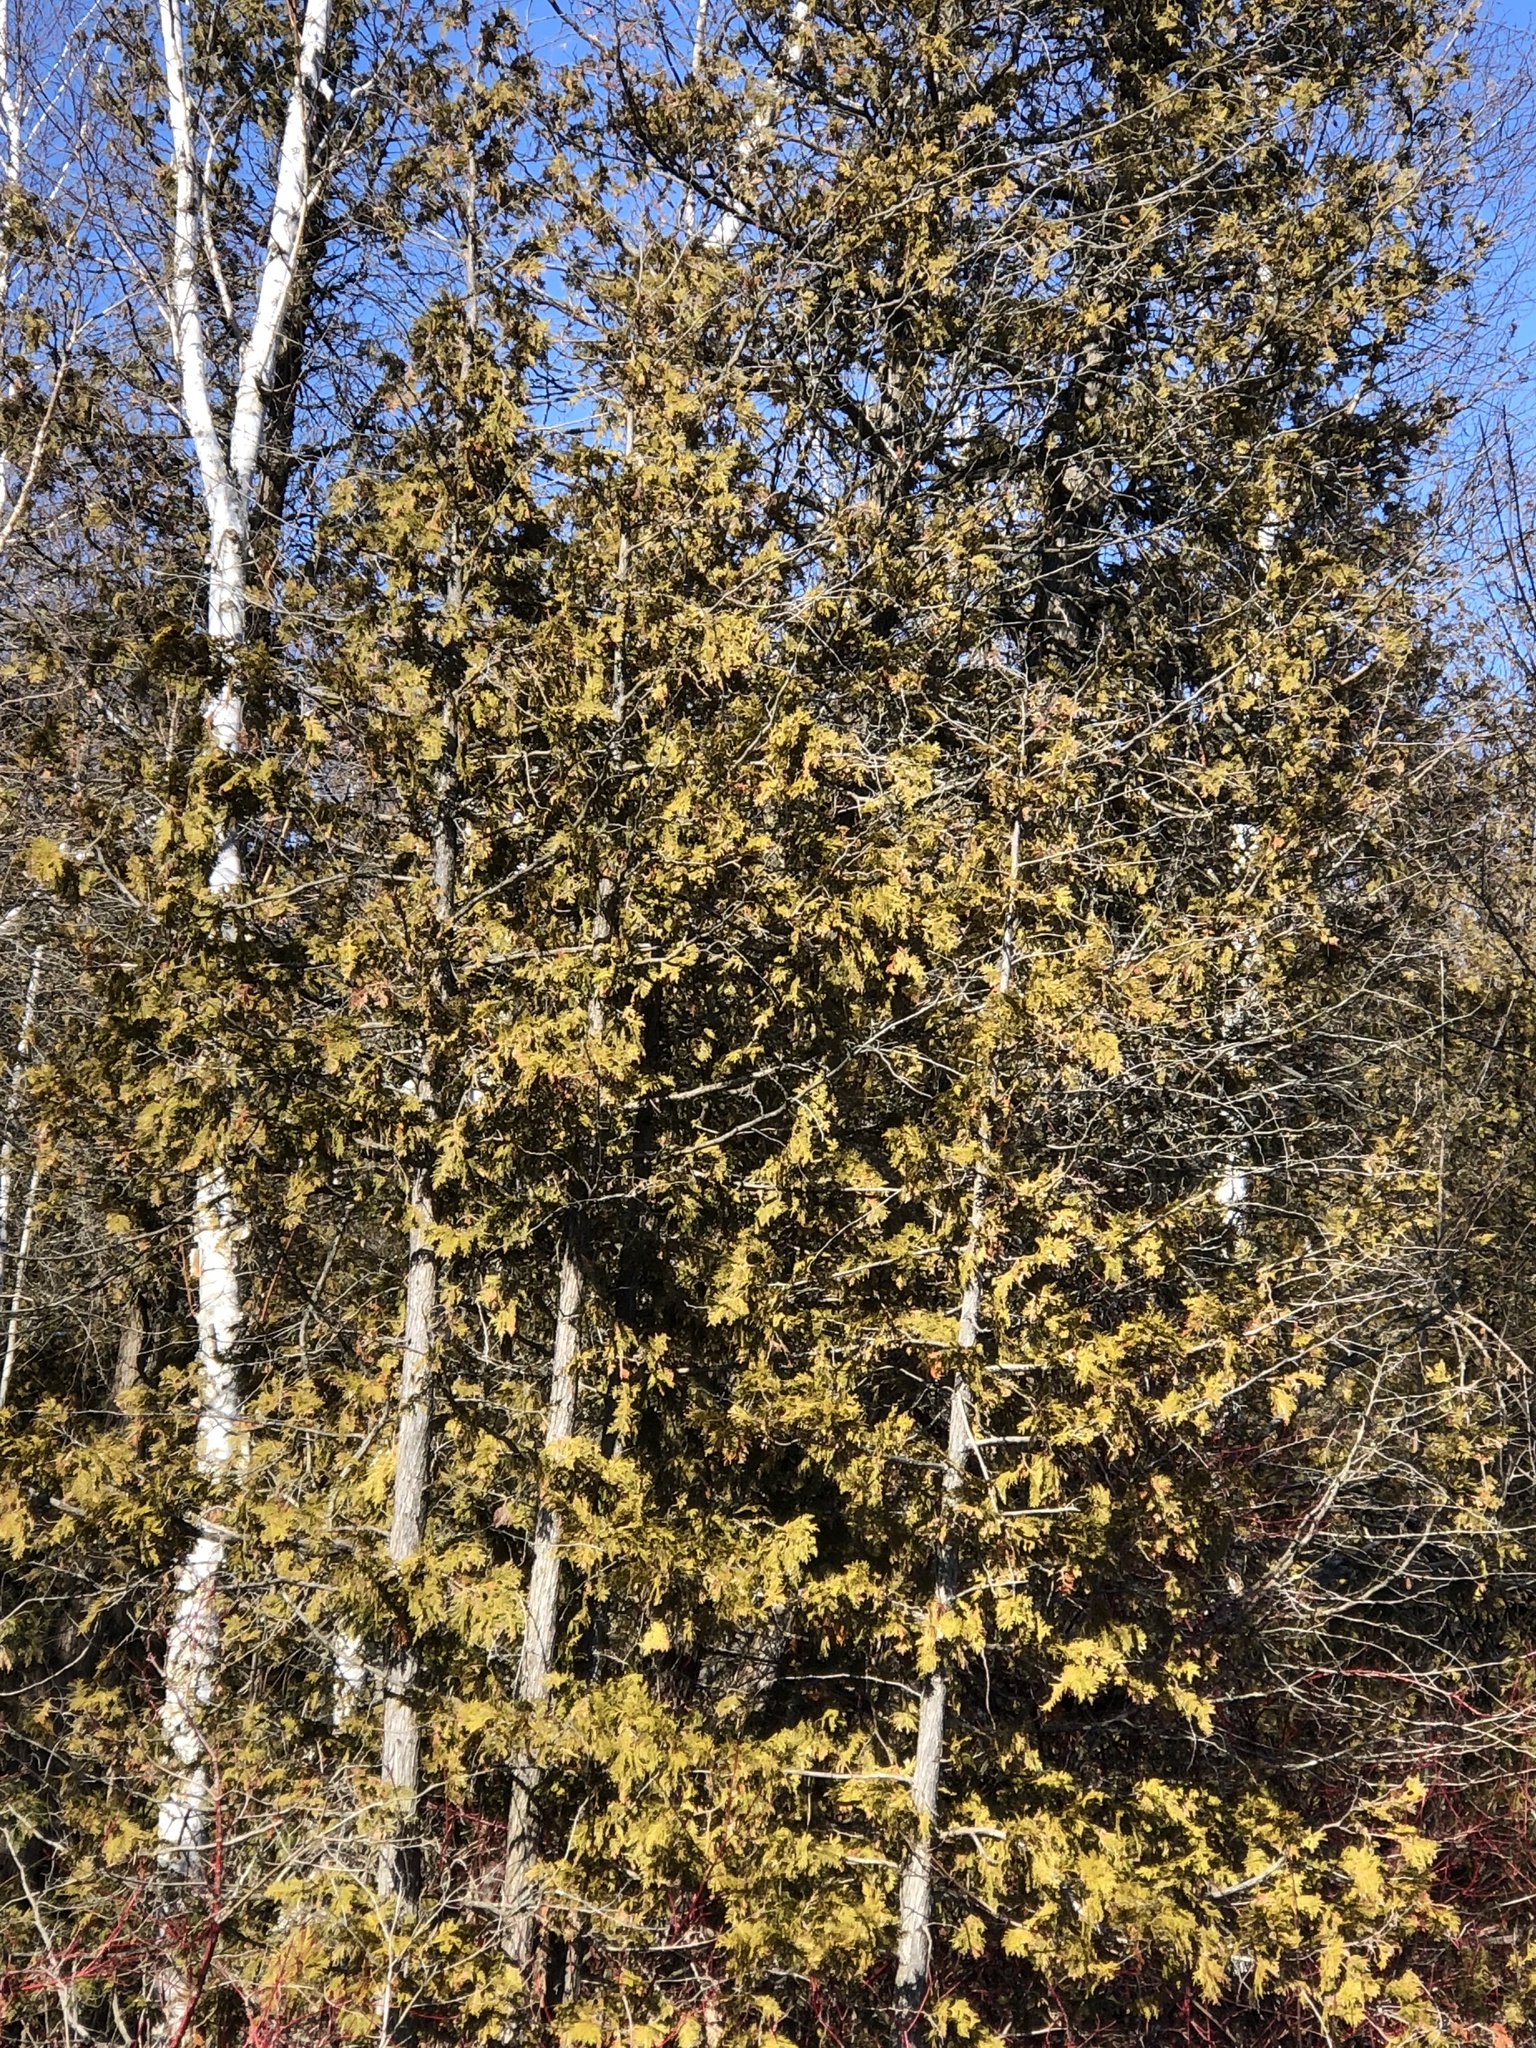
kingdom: Plantae
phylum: Tracheophyta
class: Pinopsida
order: Pinales
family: Cupressaceae
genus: Thuja
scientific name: Thuja occidentalis
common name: Northern white-cedar
